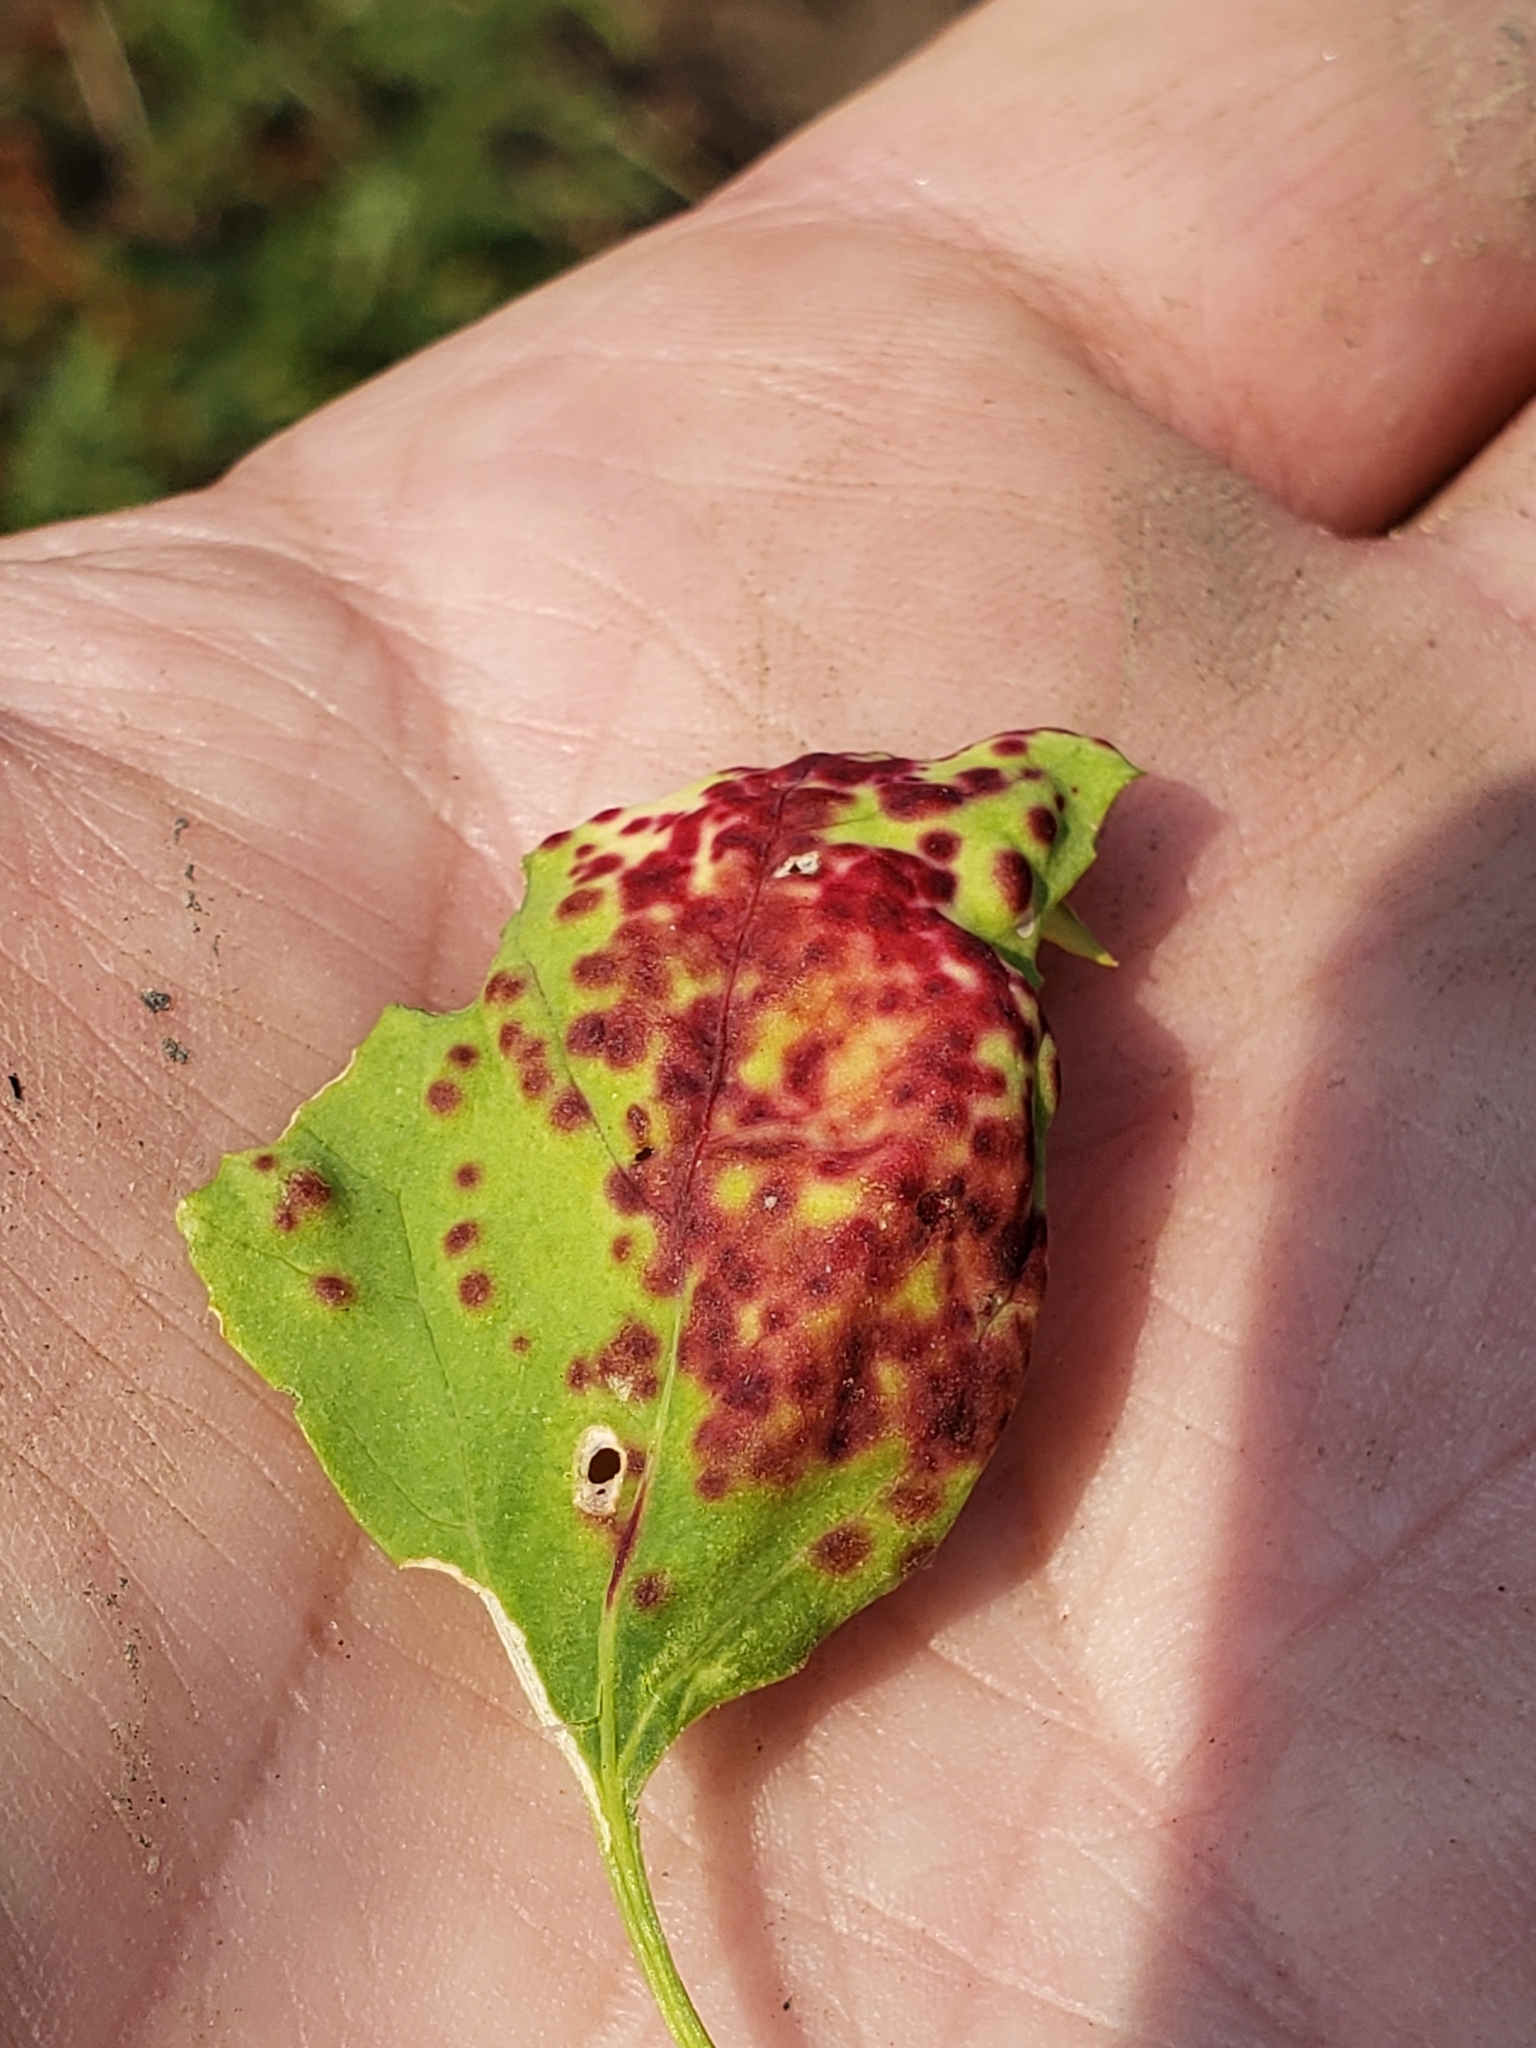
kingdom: Animalia
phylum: Arthropoda
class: Insecta
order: Hemiptera
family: Cicadellidae
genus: Norvellina
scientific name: Norvellina chenopodii
